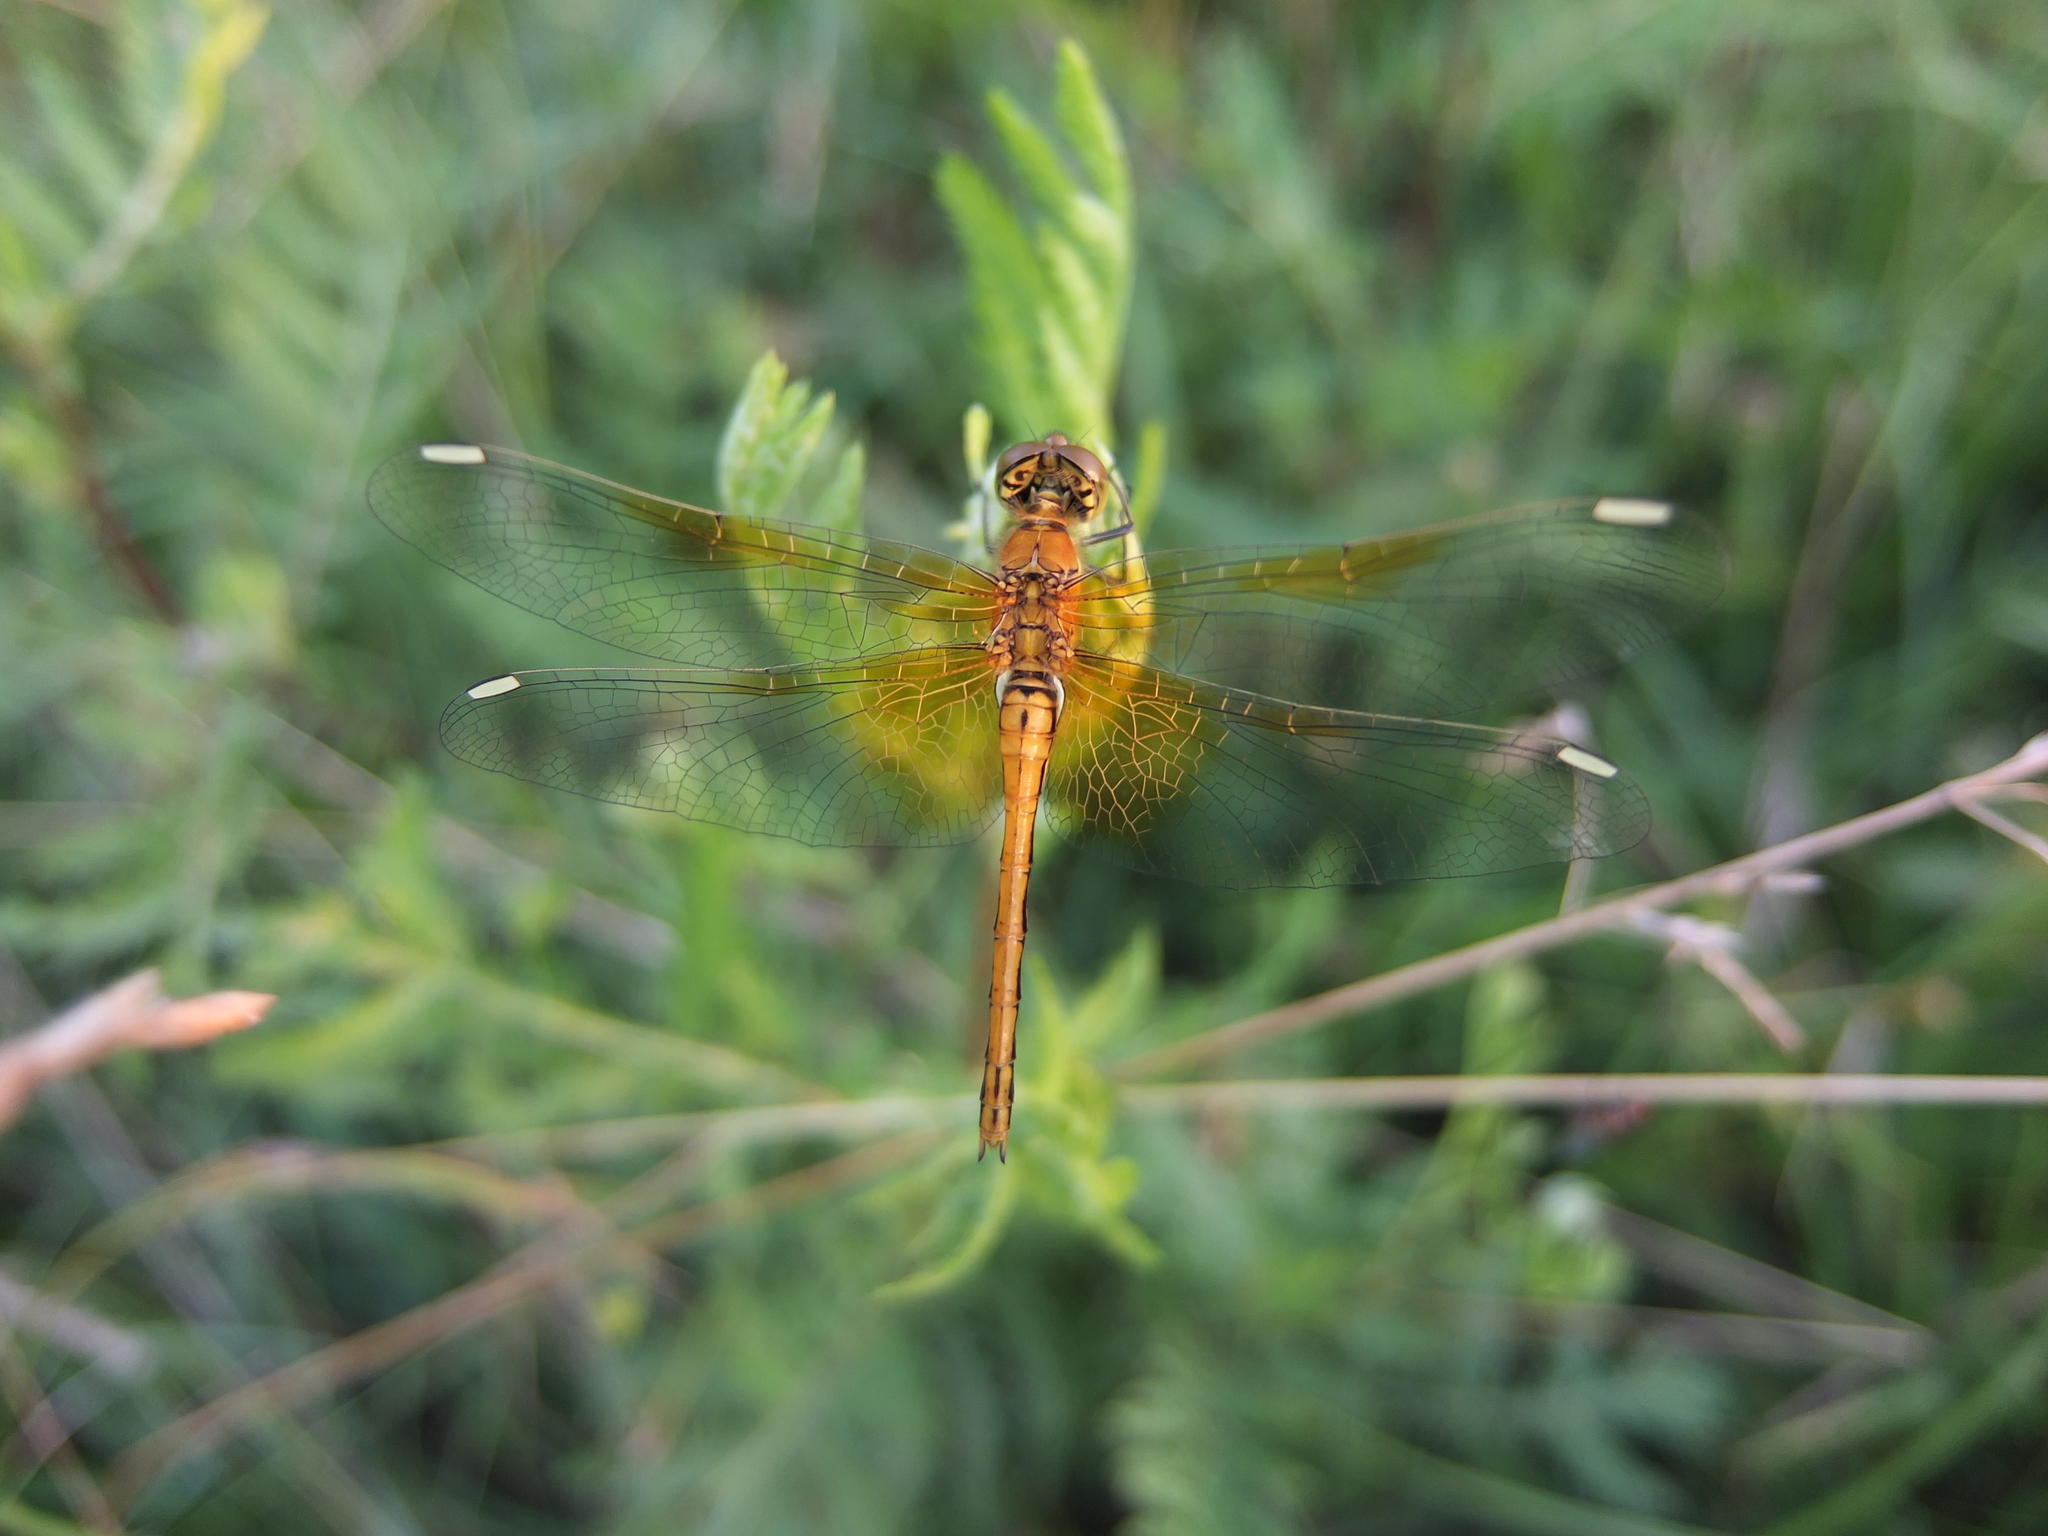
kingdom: Animalia
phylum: Arthropoda
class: Insecta
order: Odonata
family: Libellulidae
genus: Sympetrum
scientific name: Sympetrum flaveolum
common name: Yellow-winged darter
